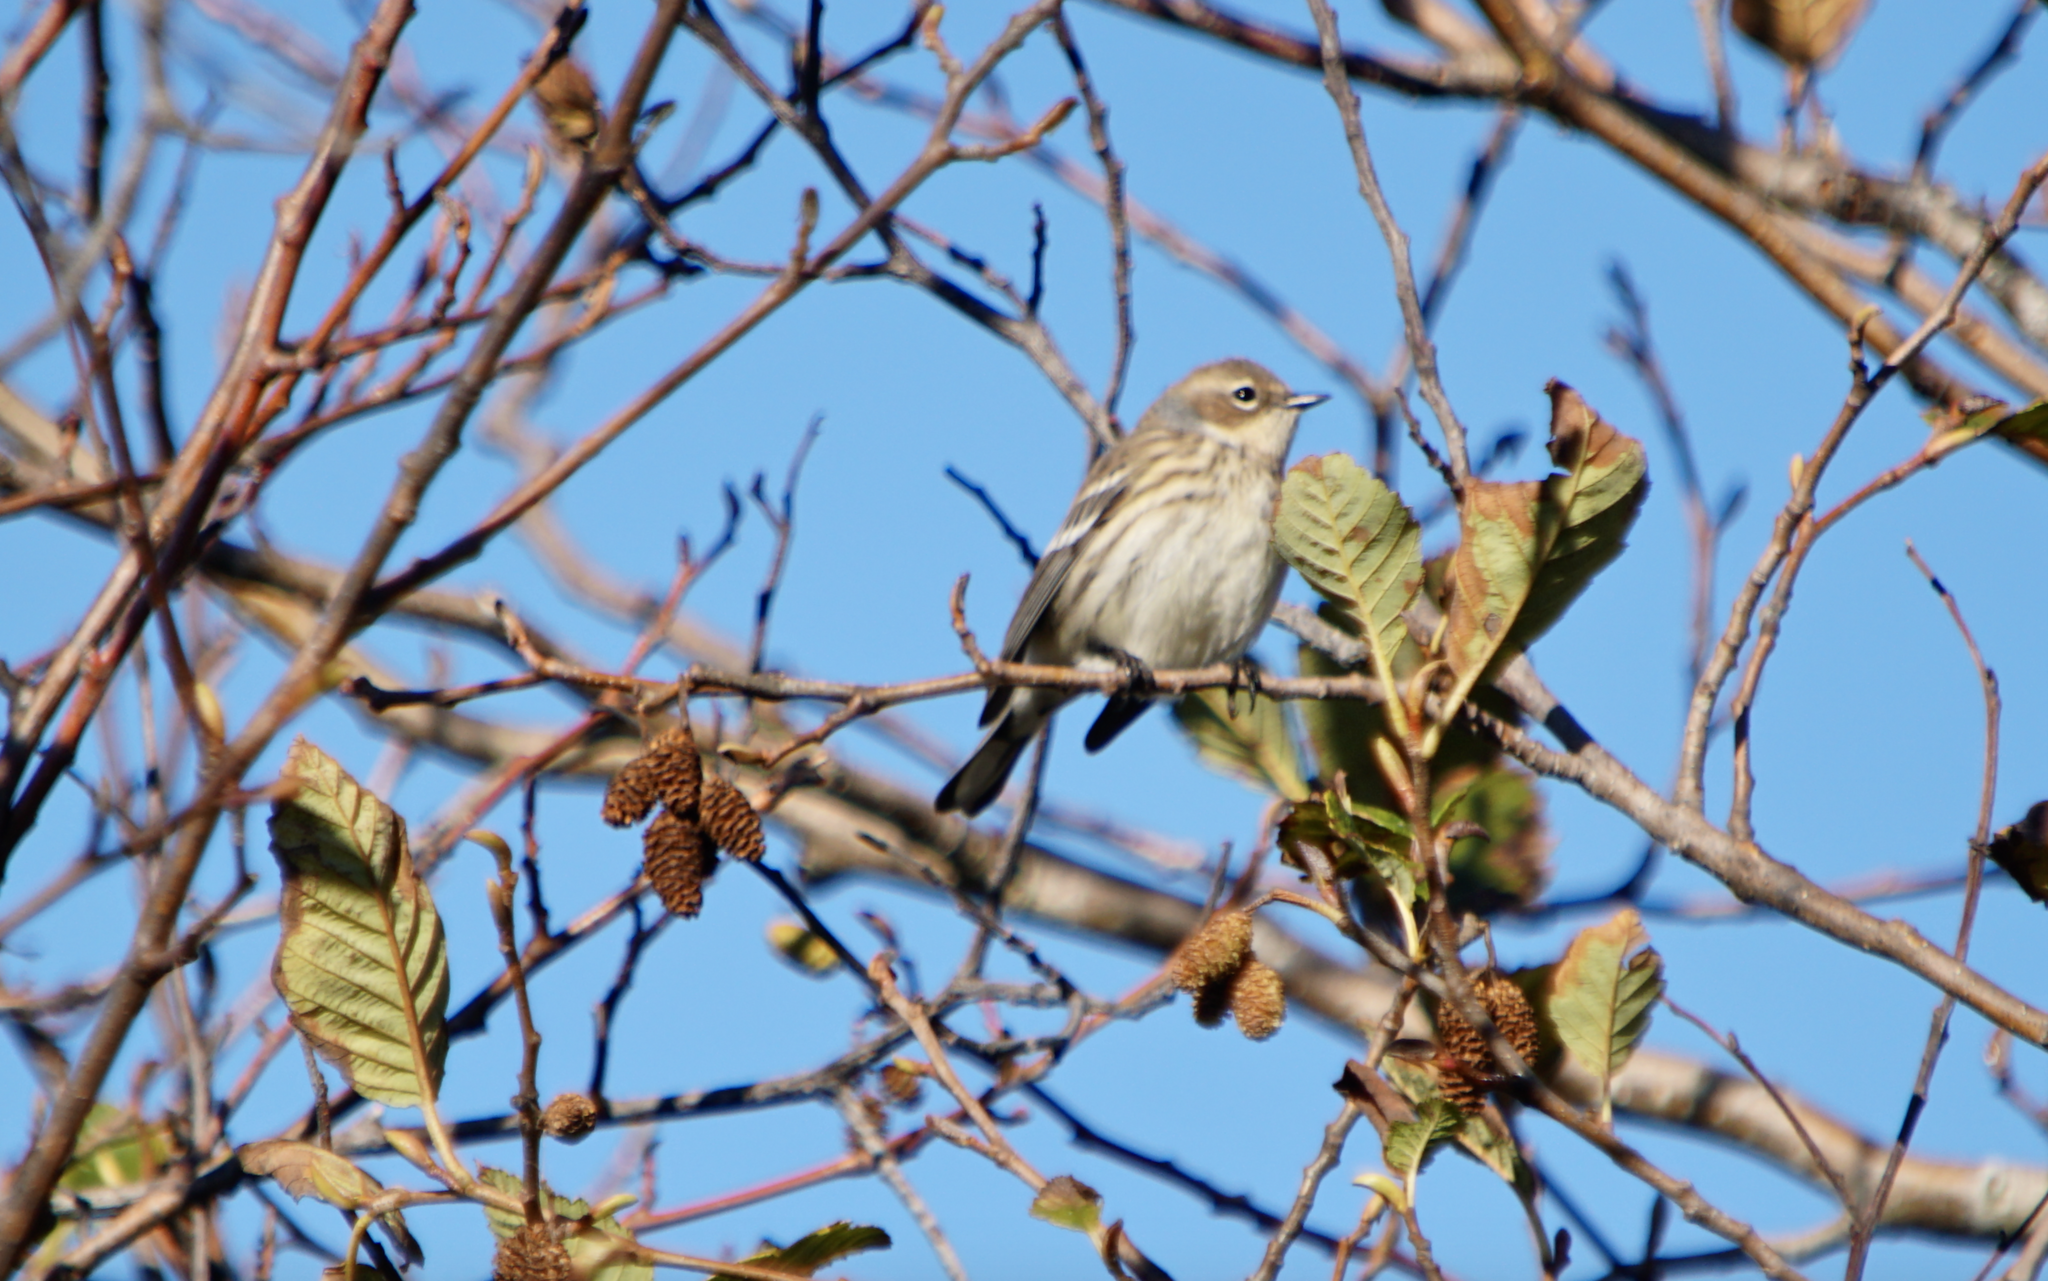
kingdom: Animalia
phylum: Chordata
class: Aves
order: Passeriformes
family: Parulidae
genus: Setophaga
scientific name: Setophaga coronata
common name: Myrtle warbler
